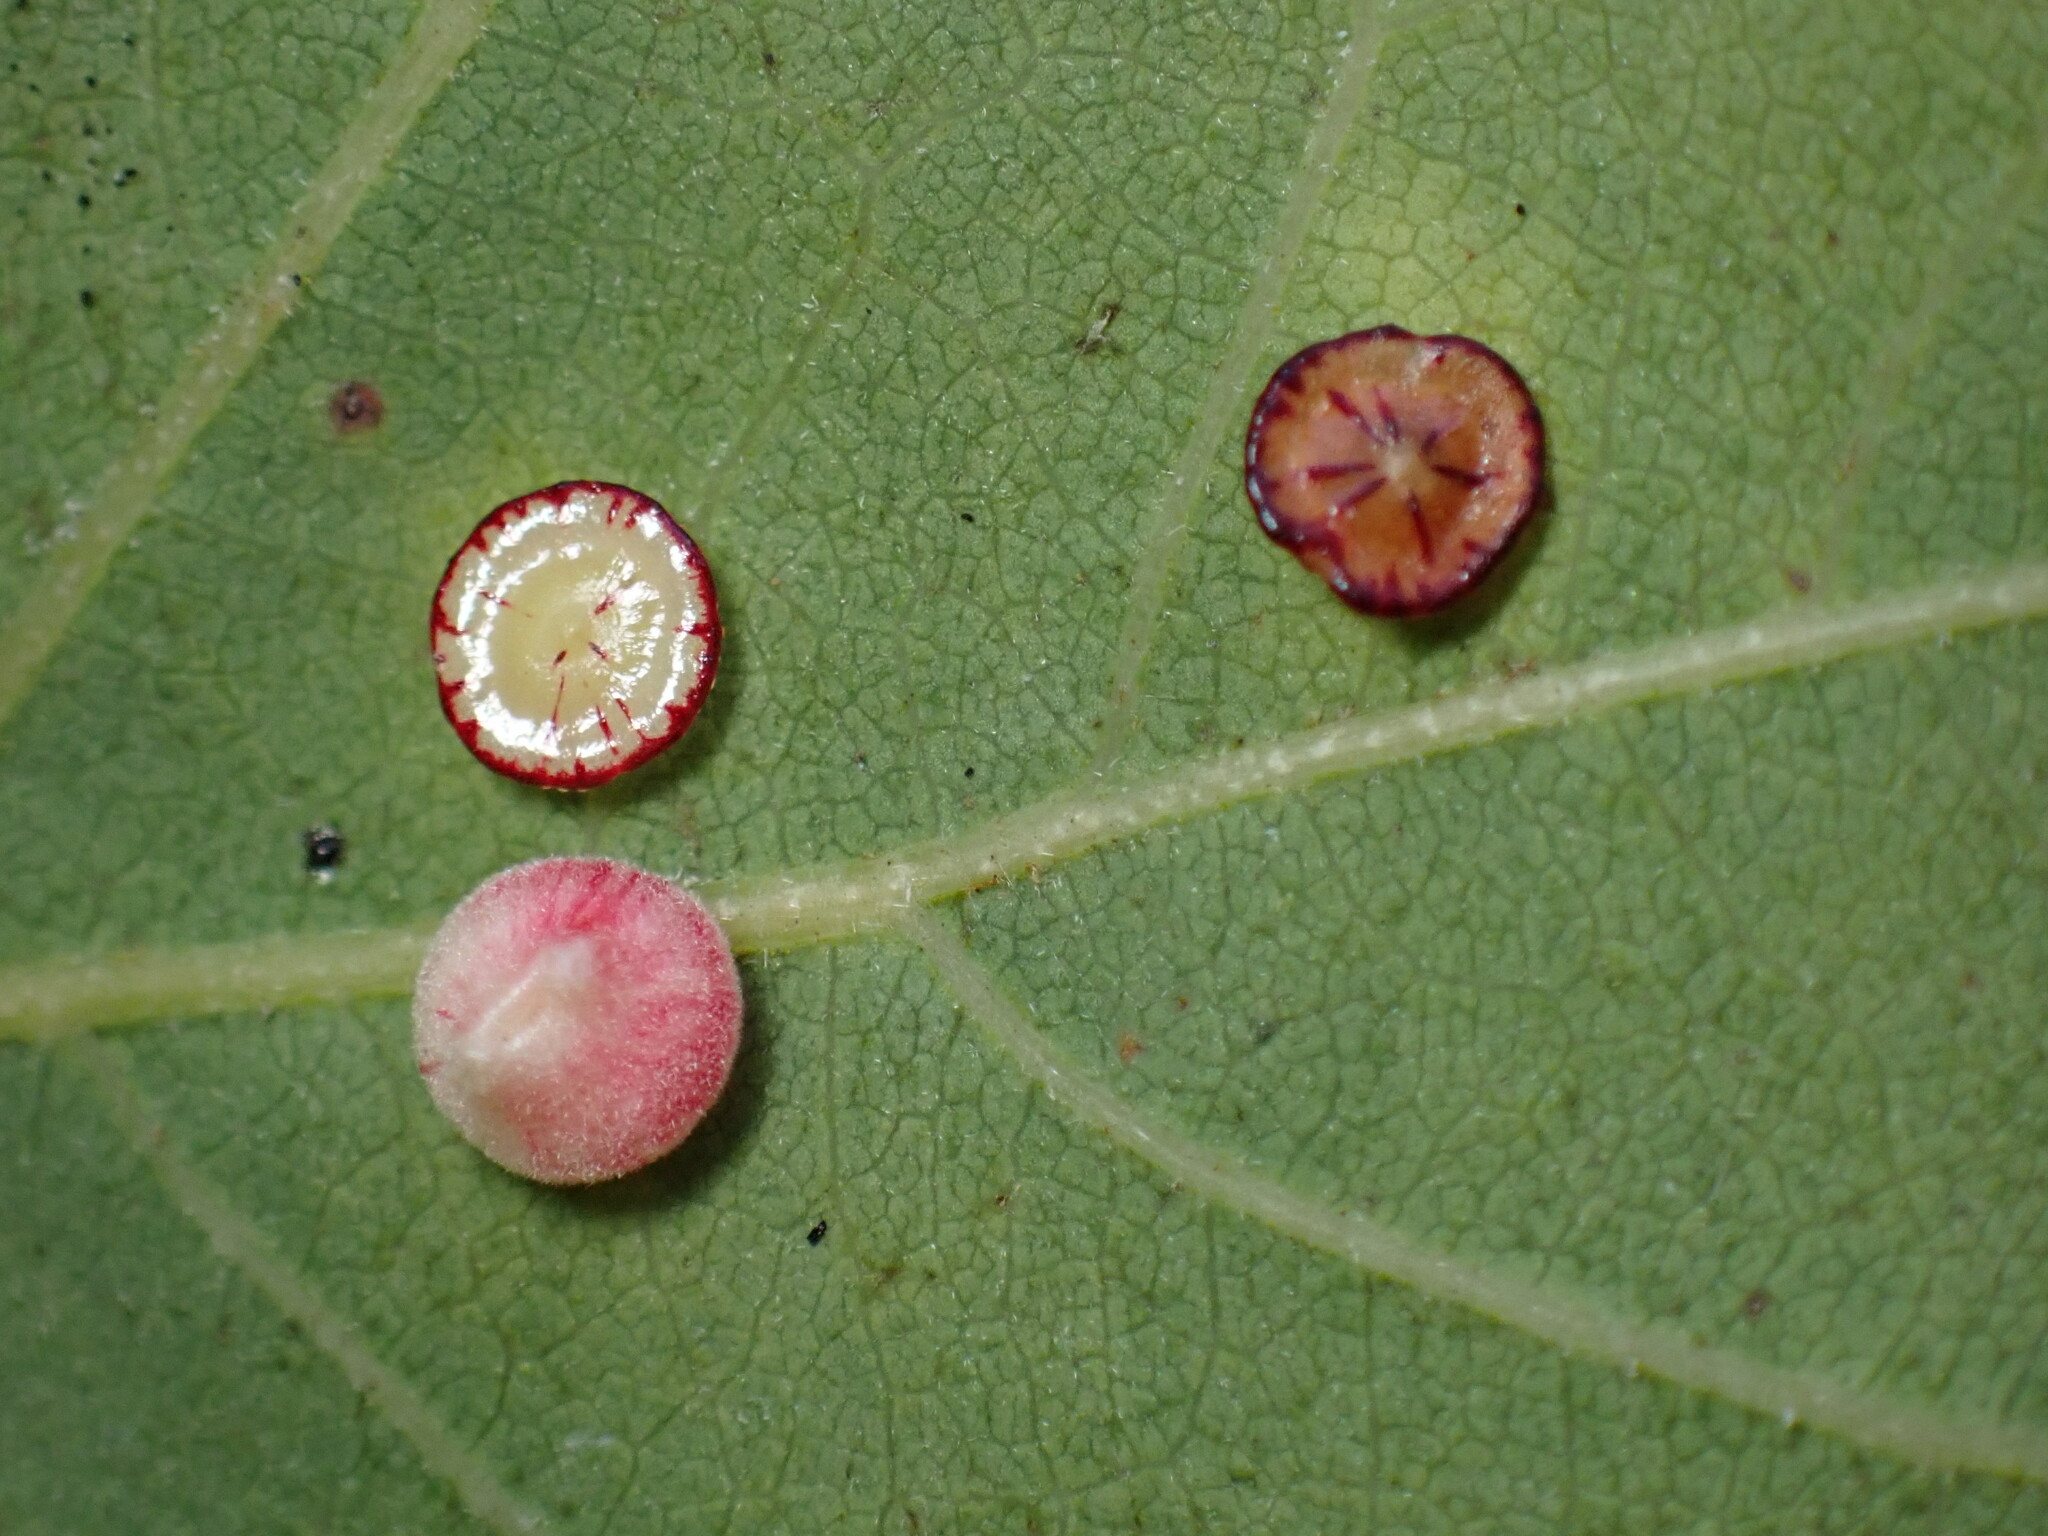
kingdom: Animalia
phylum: Arthropoda
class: Insecta
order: Hymenoptera
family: Cynipidae
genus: Andricus
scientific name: Andricus
